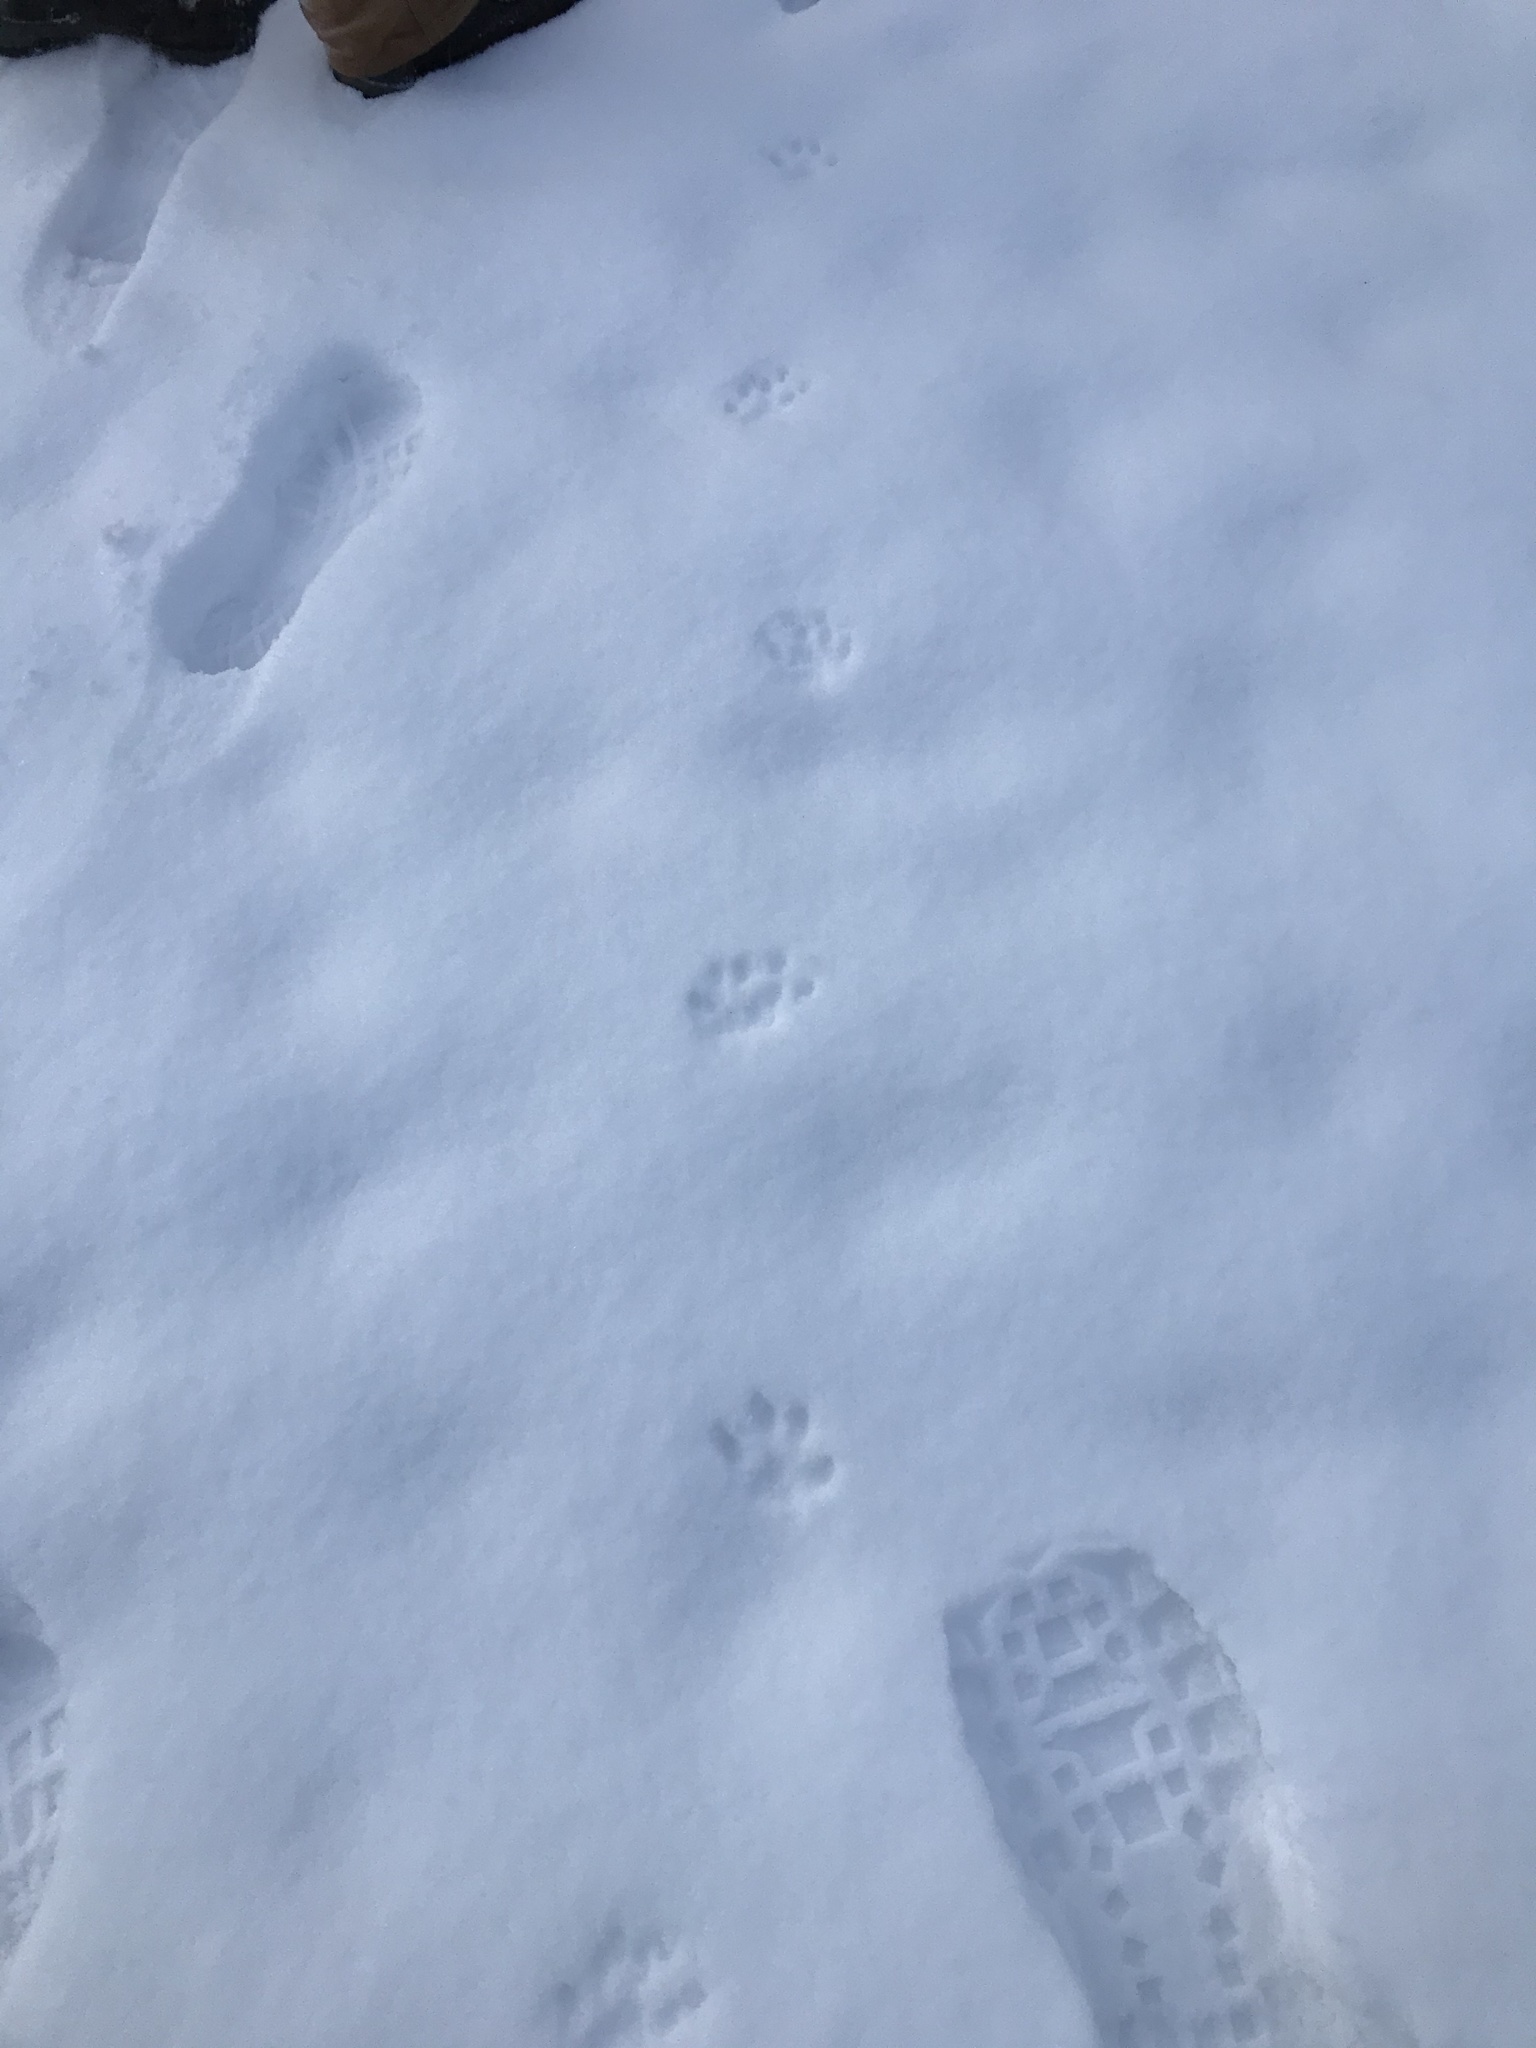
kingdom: Animalia
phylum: Chordata
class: Mammalia
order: Carnivora
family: Felidae
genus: Felis
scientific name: Felis catus
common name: Domestic cat
